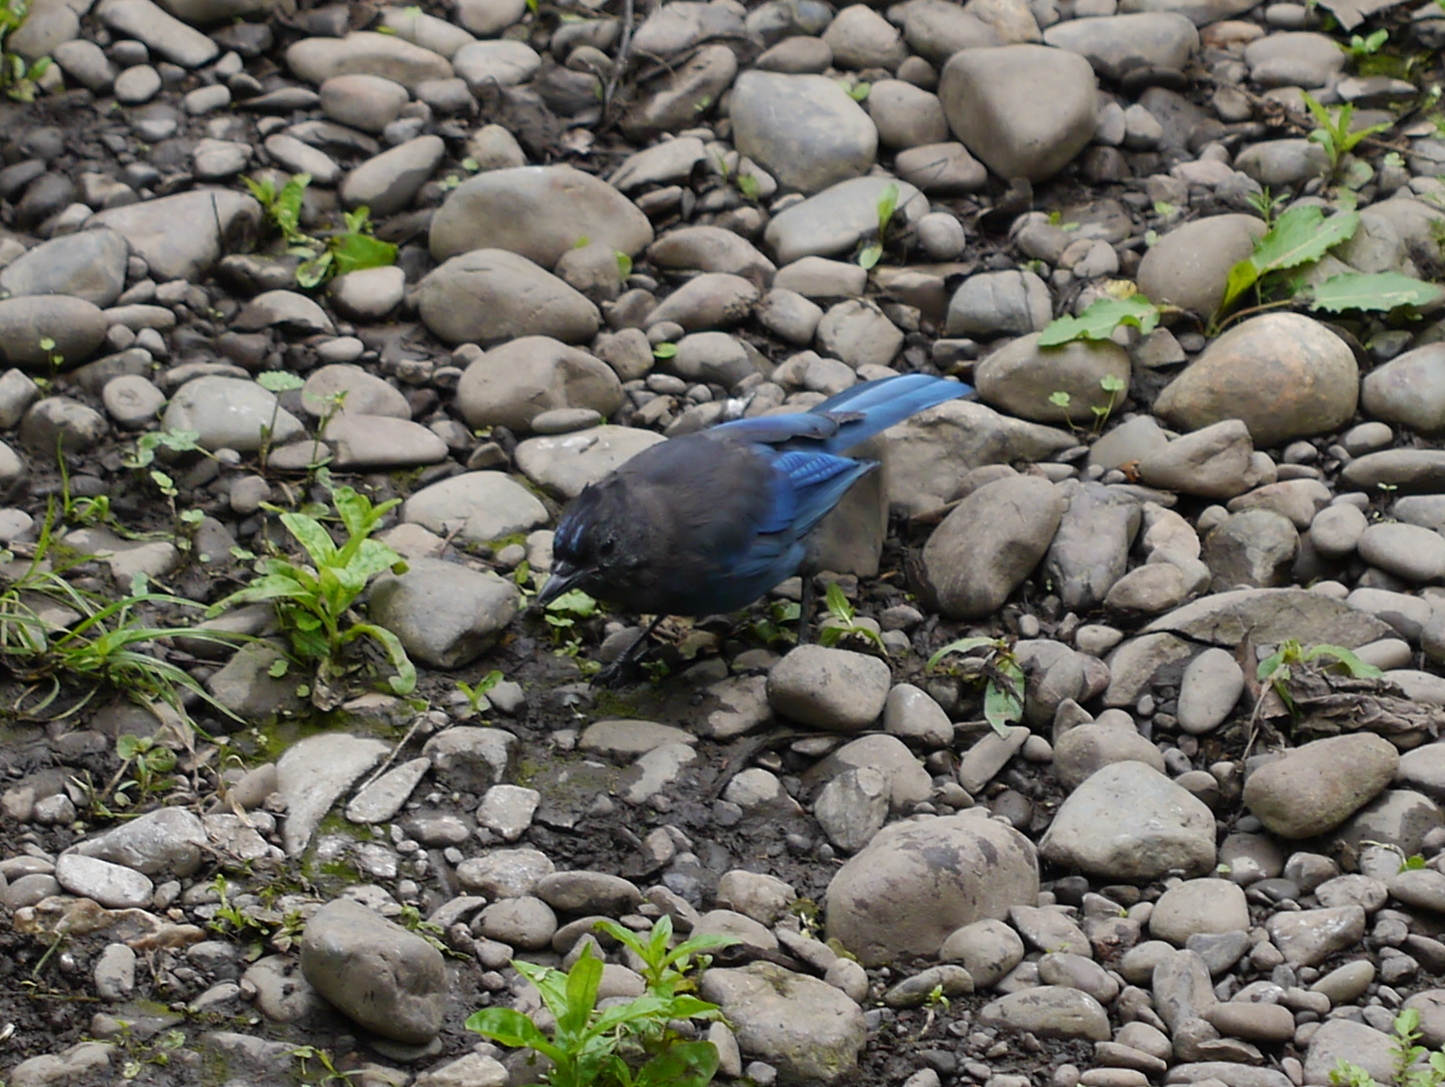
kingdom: Animalia
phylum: Chordata
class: Aves
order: Passeriformes
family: Corvidae
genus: Cyanocitta
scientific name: Cyanocitta stelleri
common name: Steller's jay
